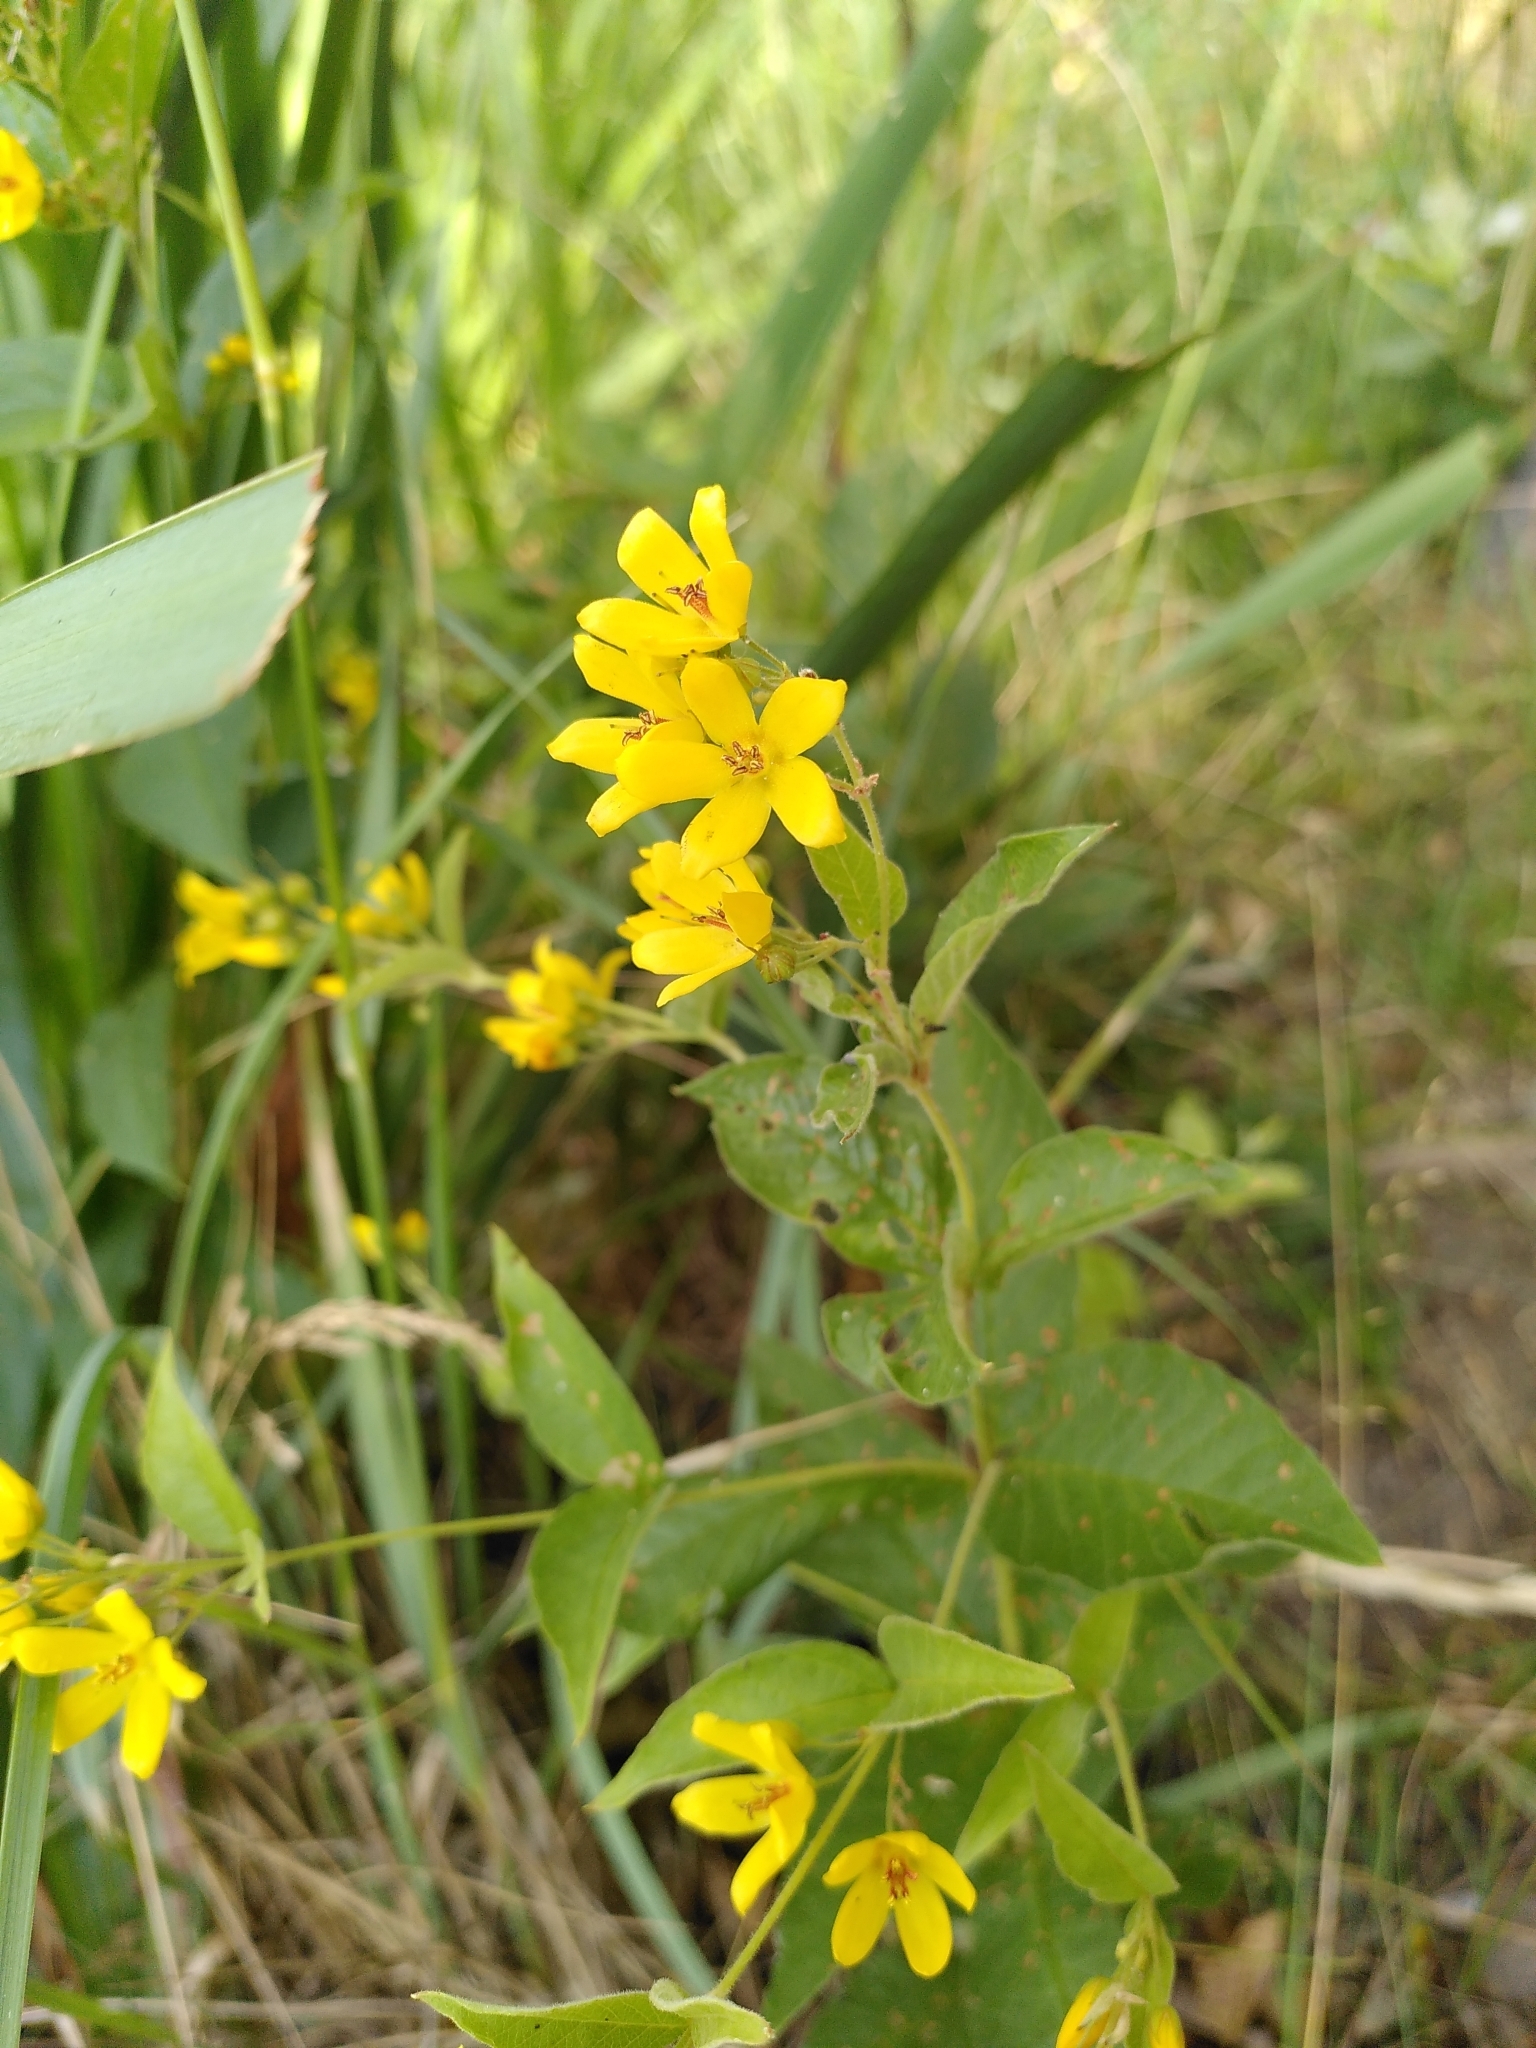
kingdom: Plantae
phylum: Tracheophyta
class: Magnoliopsida
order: Ericales
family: Primulaceae
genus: Lysimachia
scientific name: Lysimachia vulgaris
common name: Yellow loosestrife
